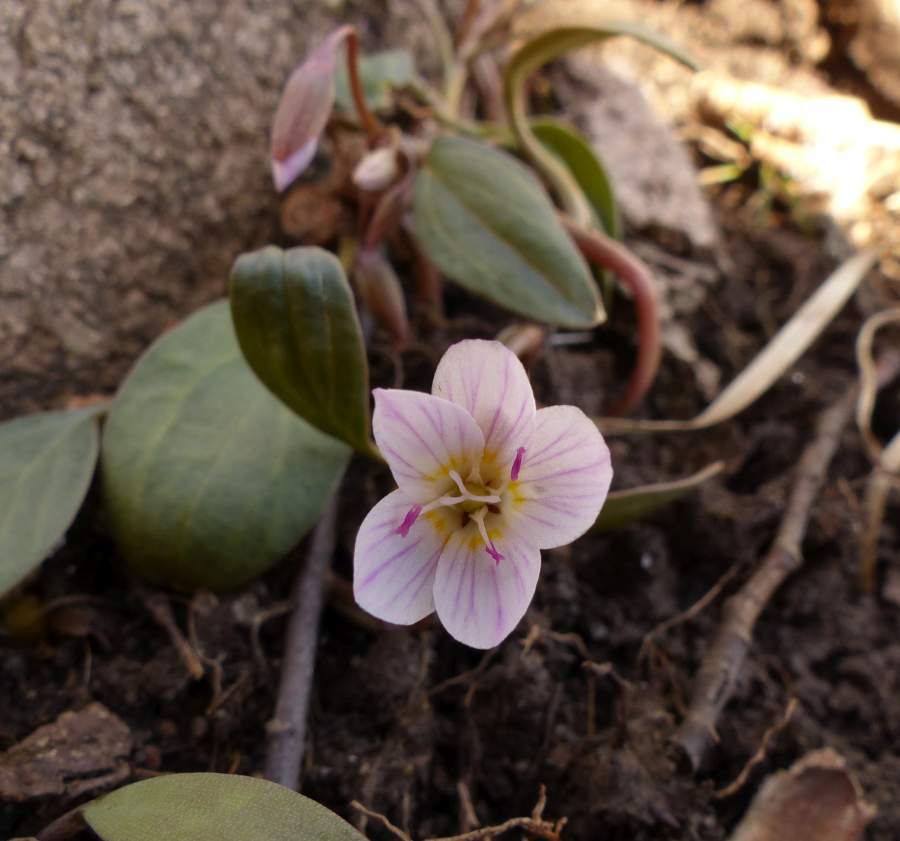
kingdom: Plantae
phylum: Tracheophyta
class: Magnoliopsida
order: Caryophyllales
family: Montiaceae
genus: Claytonia
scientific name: Claytonia caroliniana
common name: Carolina spring beauty
